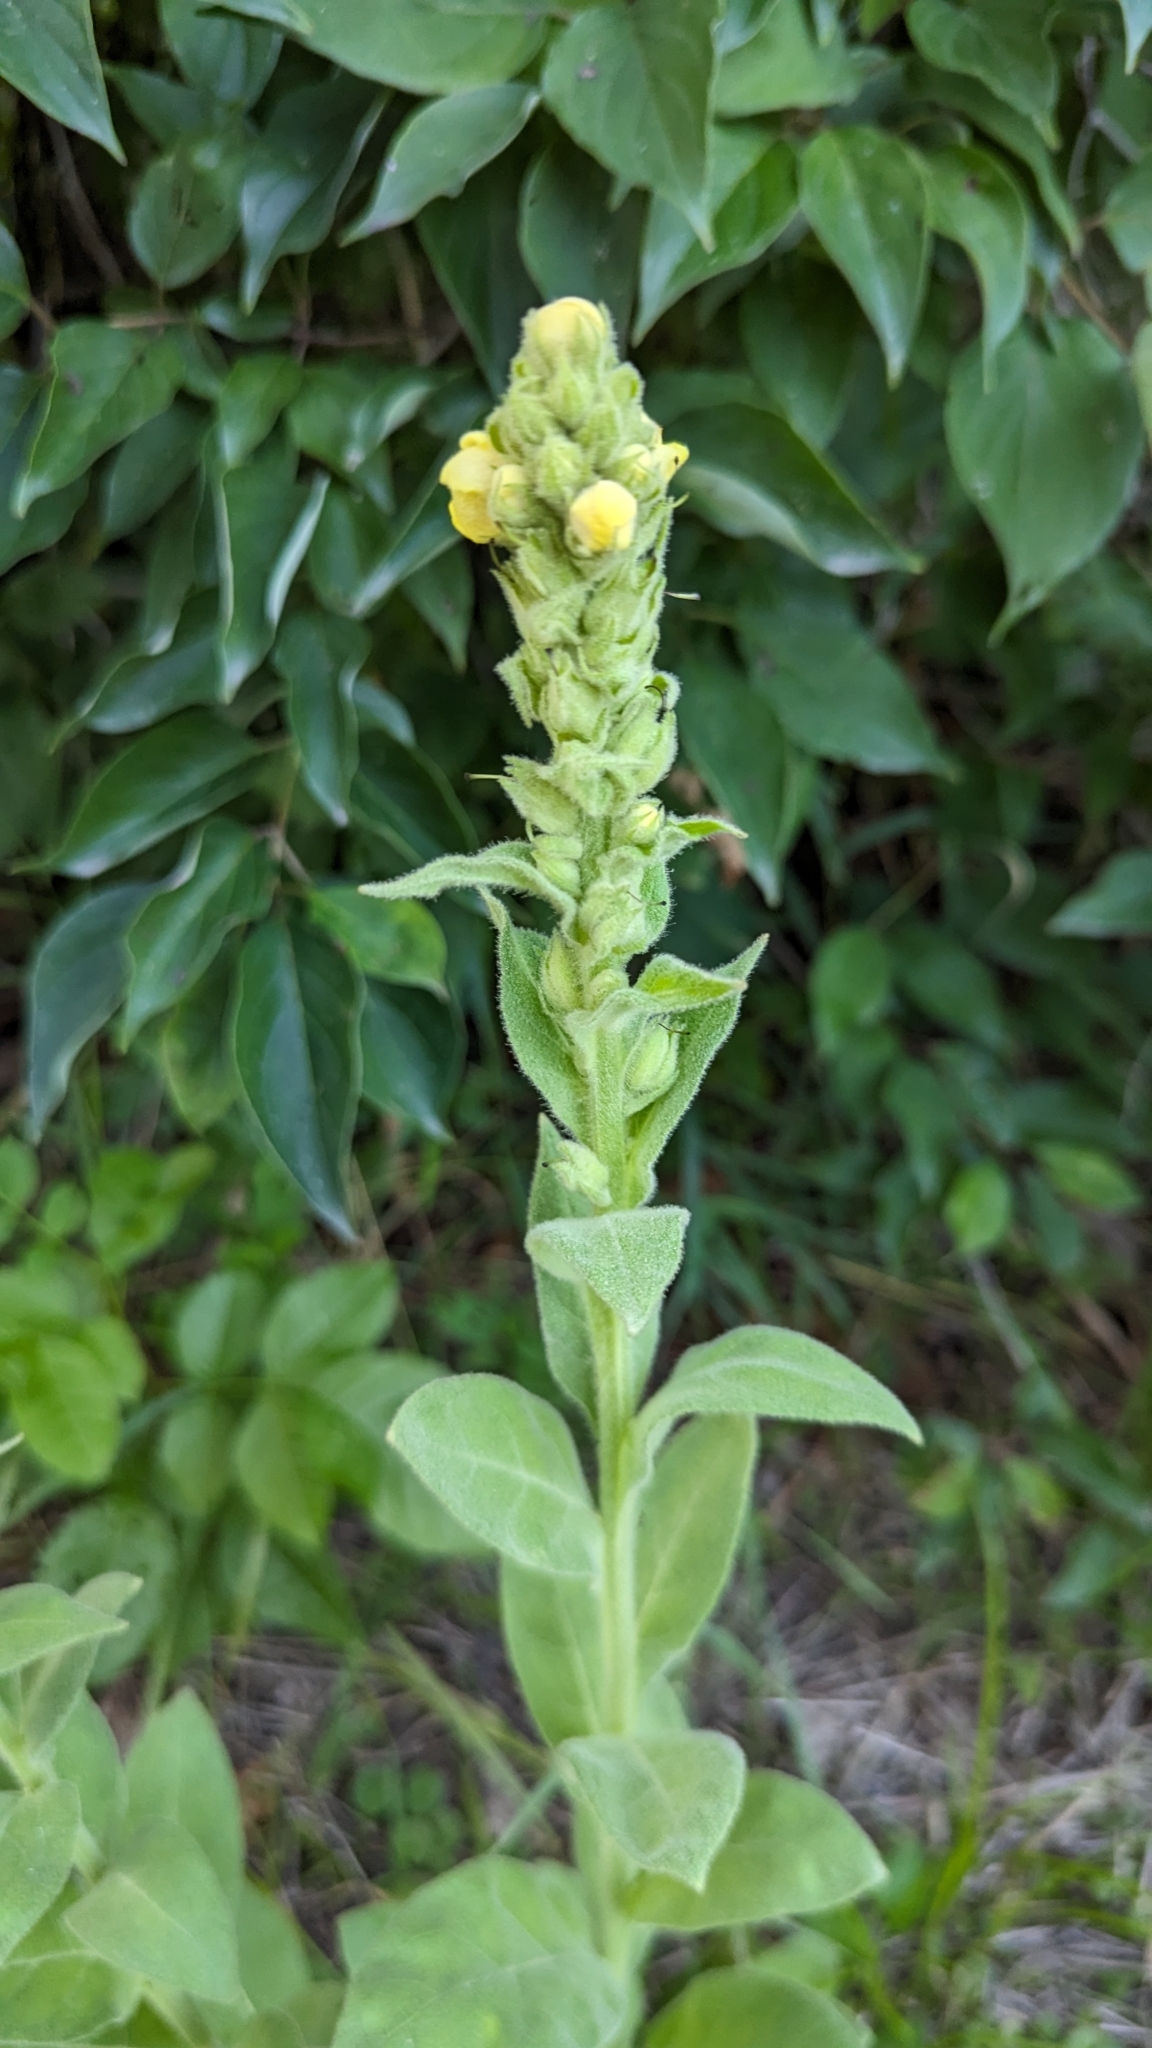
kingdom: Plantae
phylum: Tracheophyta
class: Magnoliopsida
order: Lamiales
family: Scrophulariaceae
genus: Verbascum
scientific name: Verbascum thapsus
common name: Common mullein
